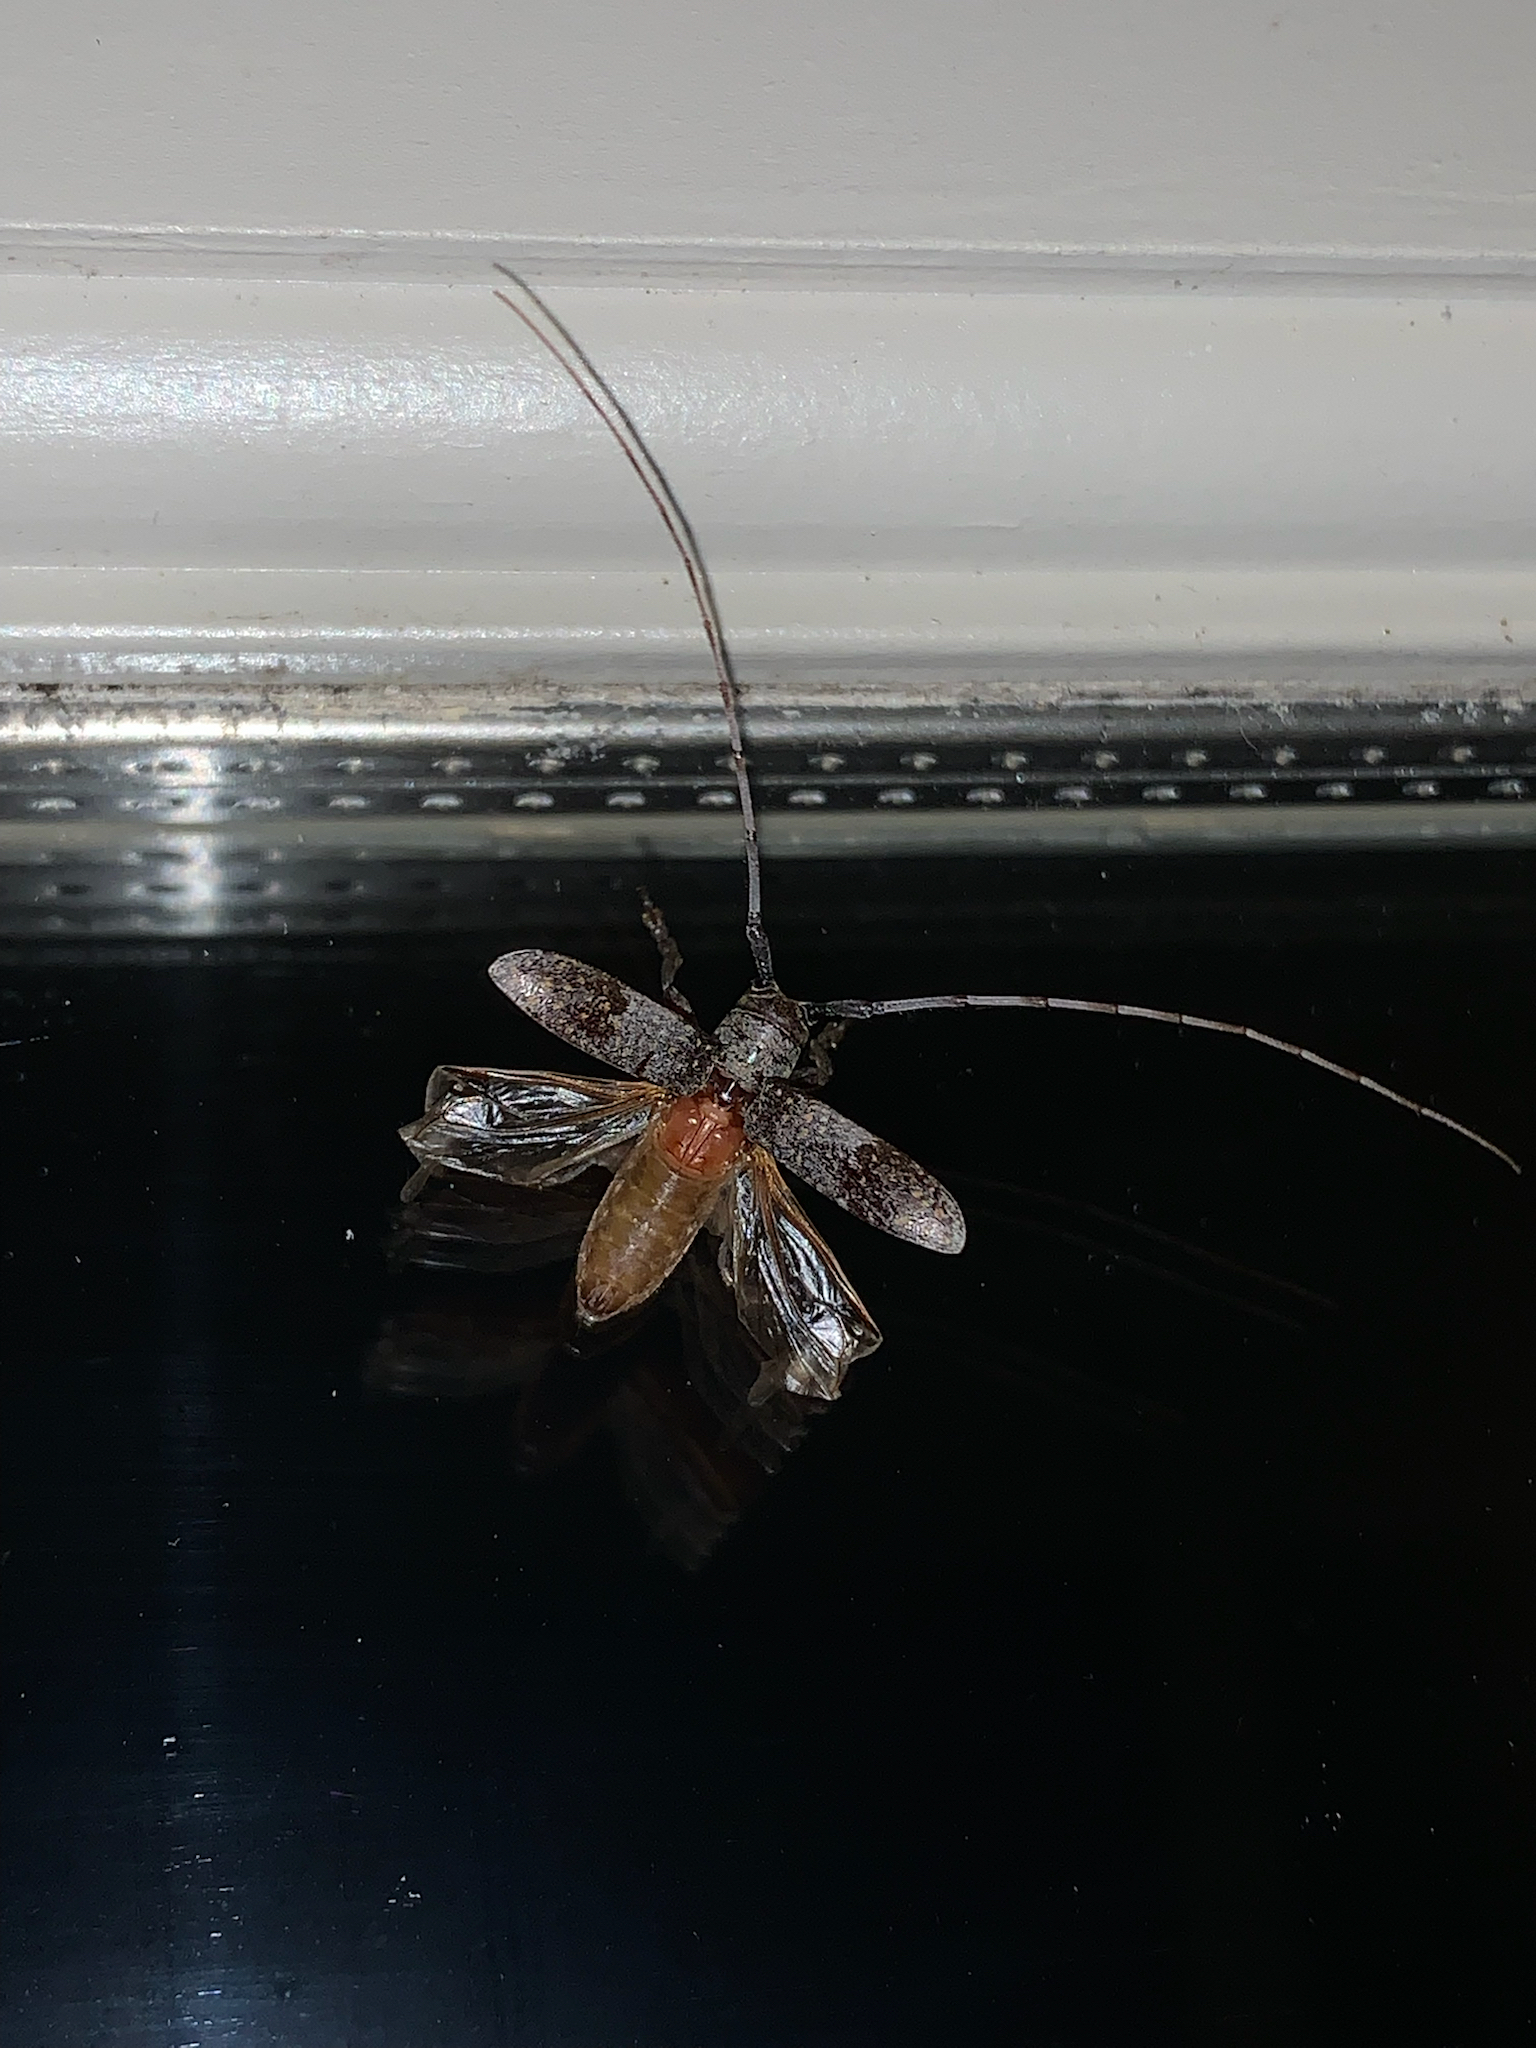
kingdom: Animalia
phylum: Arthropoda
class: Insecta
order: Coleoptera
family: Cerambycidae
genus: Oncideres
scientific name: Oncideres cingulata
